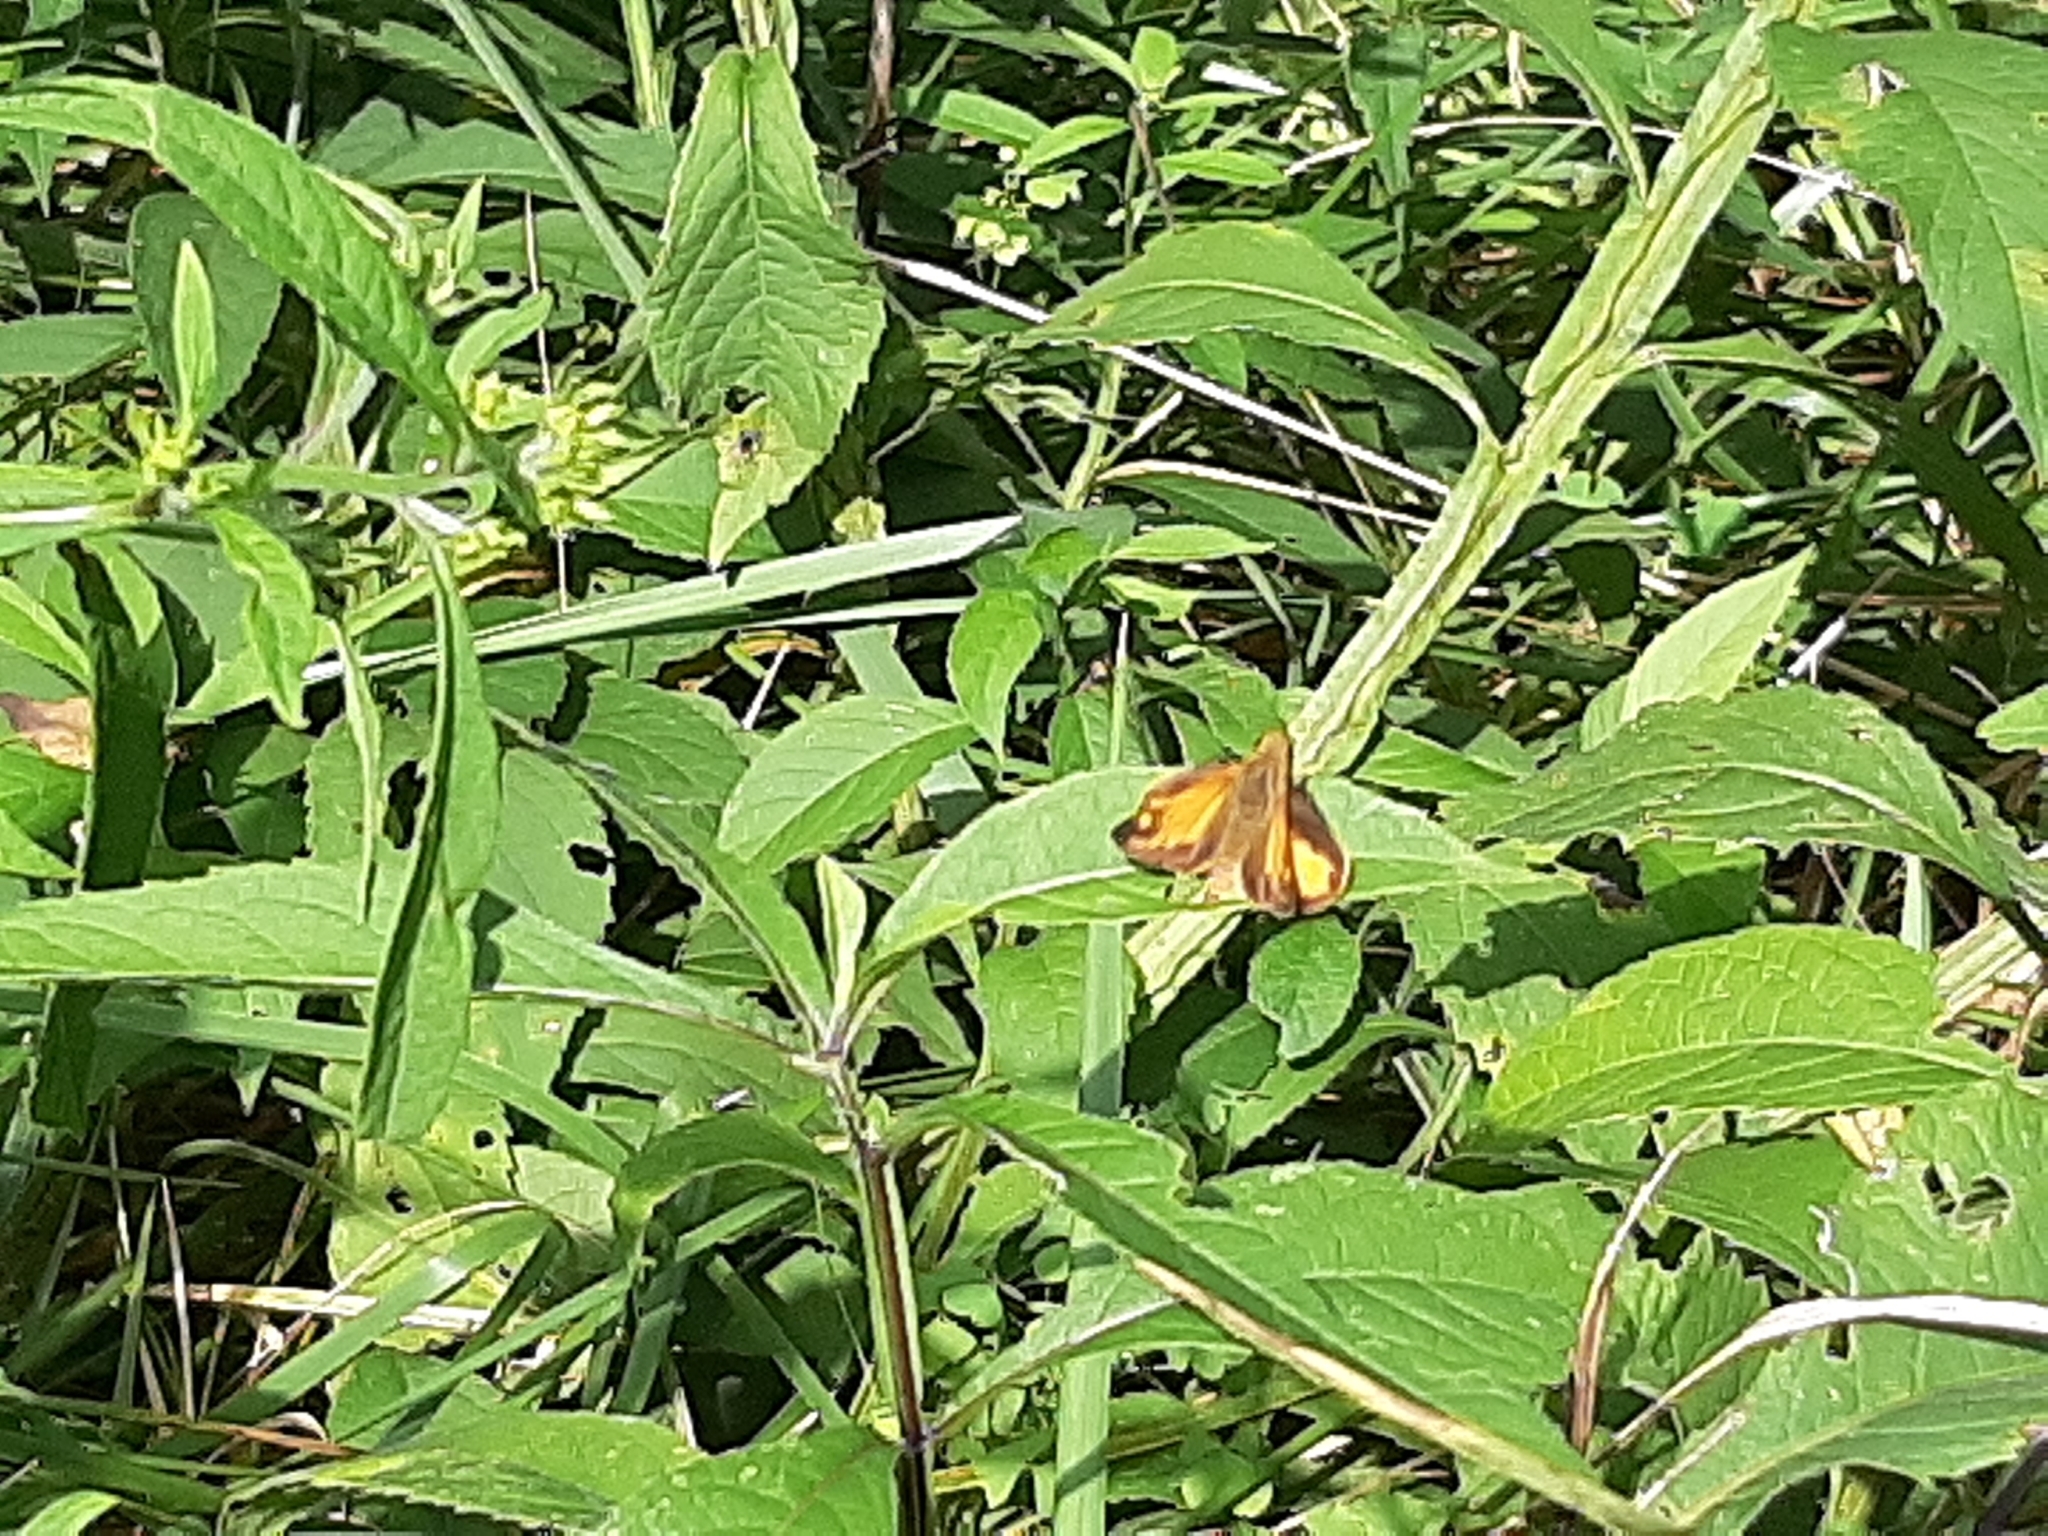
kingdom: Animalia
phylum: Arthropoda
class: Insecta
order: Lepidoptera
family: Hesperiidae
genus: Lon
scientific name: Lon zabulon
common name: Zabulon skipper
